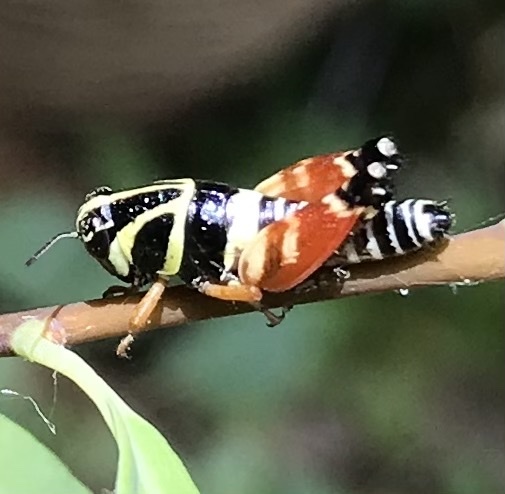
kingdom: Animalia
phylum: Arthropoda
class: Insecta
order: Orthoptera
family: Acrididae
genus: Aidemona
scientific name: Aidemona azteca
